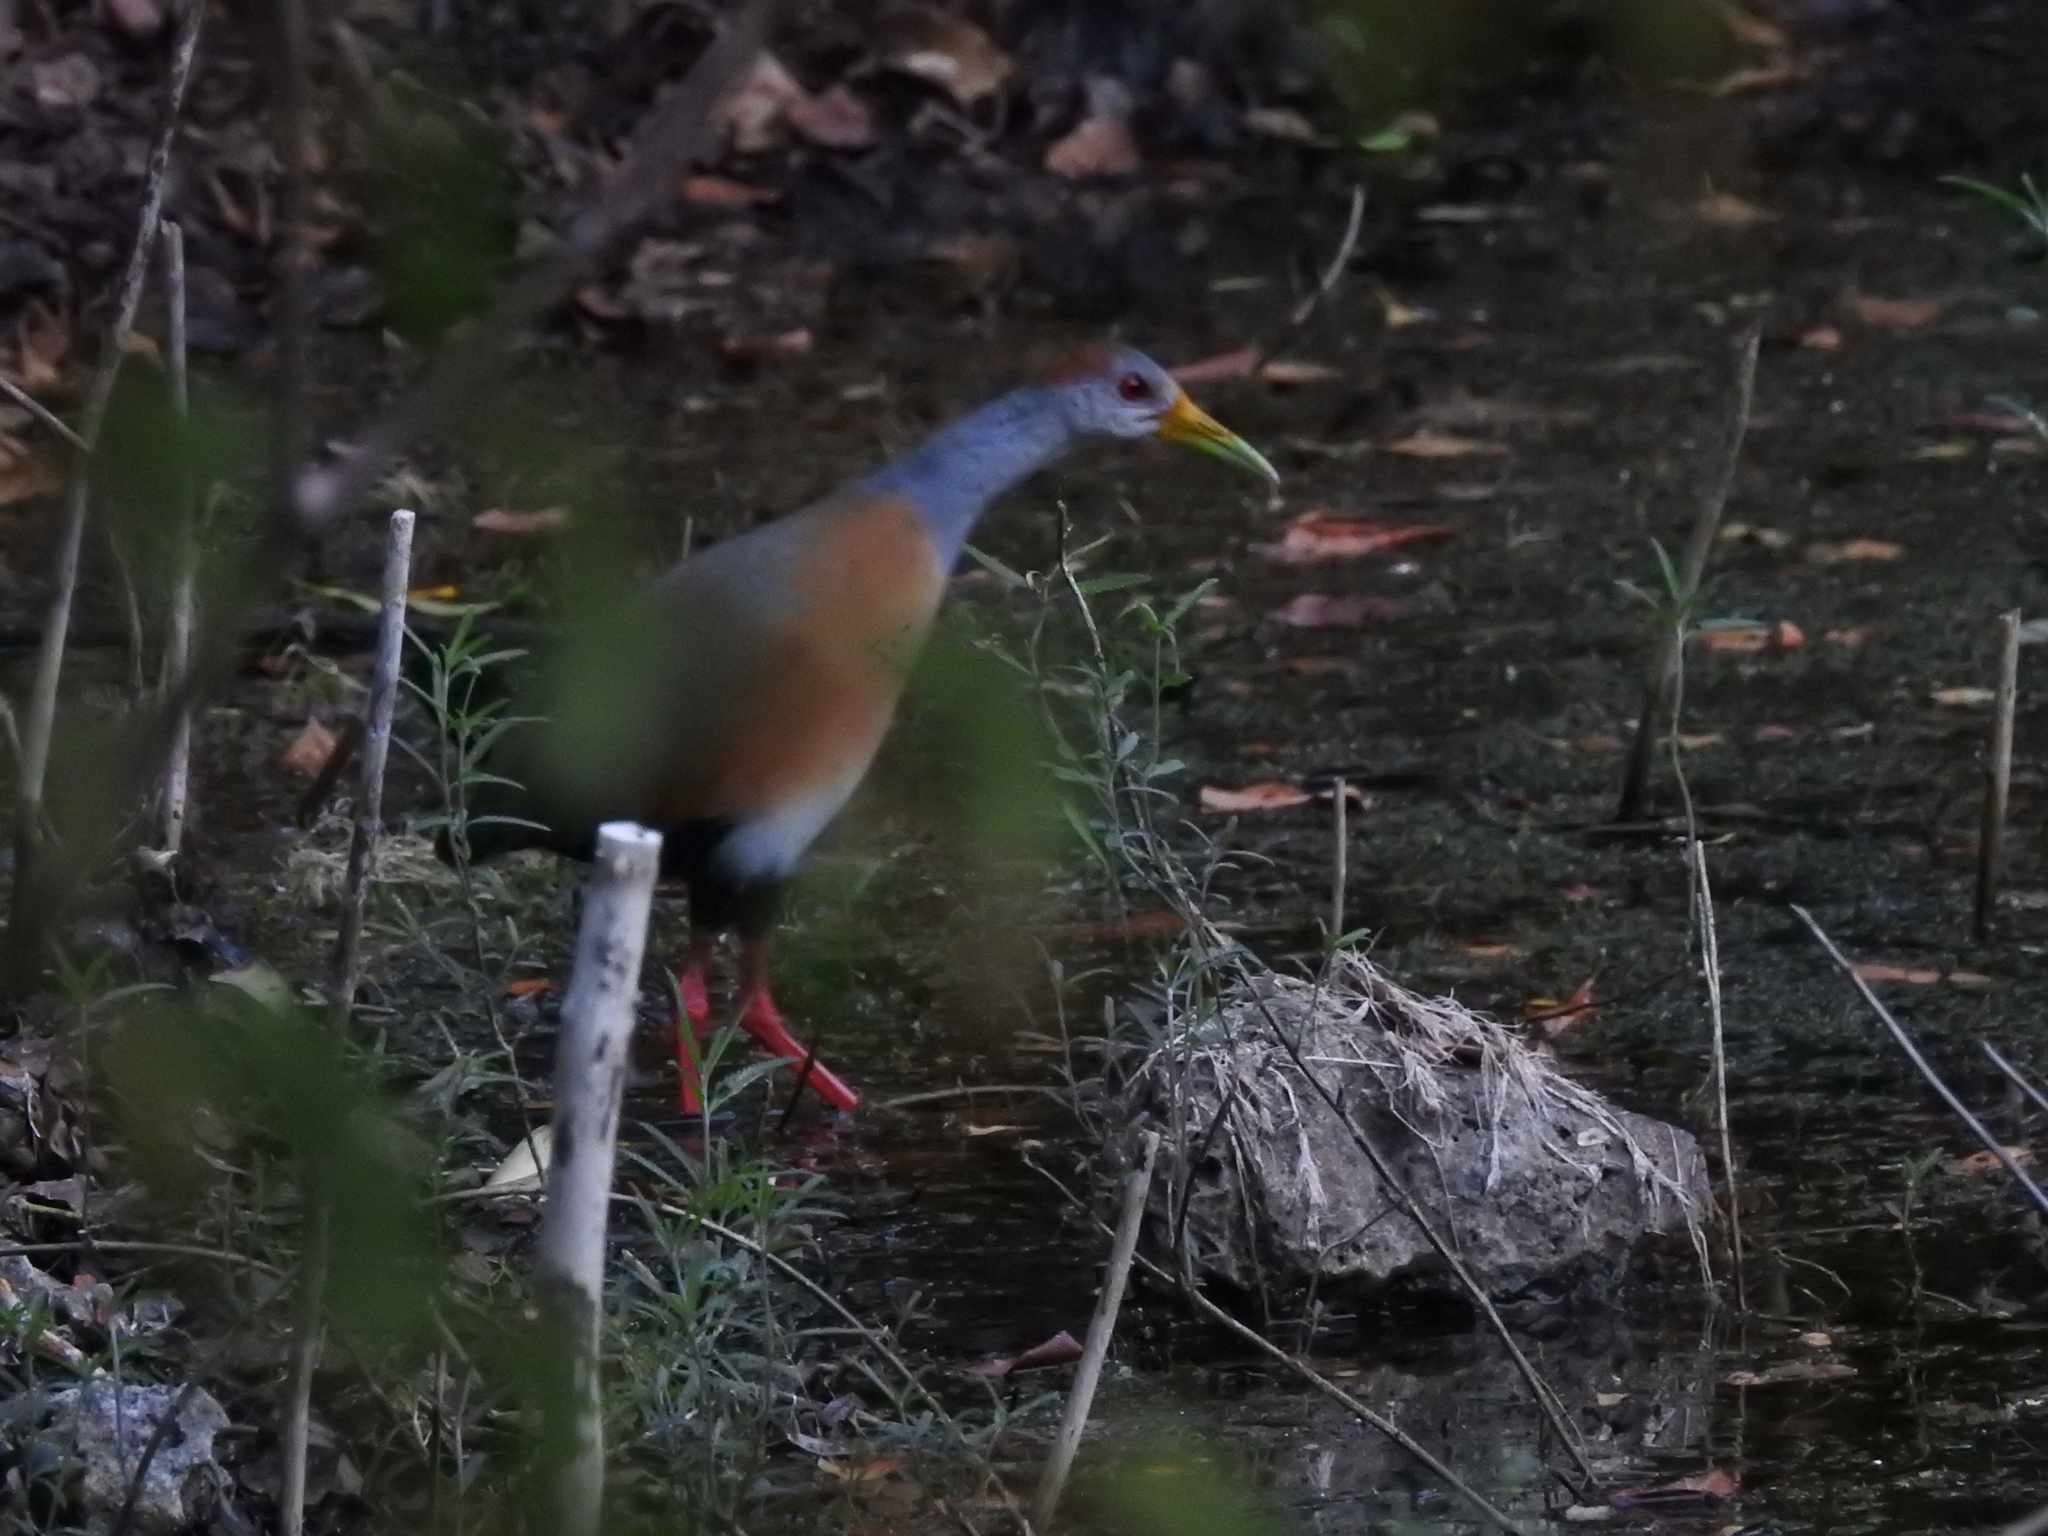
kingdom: Animalia
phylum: Chordata
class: Aves
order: Gruiformes
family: Rallidae
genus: Aramides
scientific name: Aramides albiventris
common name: Russet-naped wood-rail
